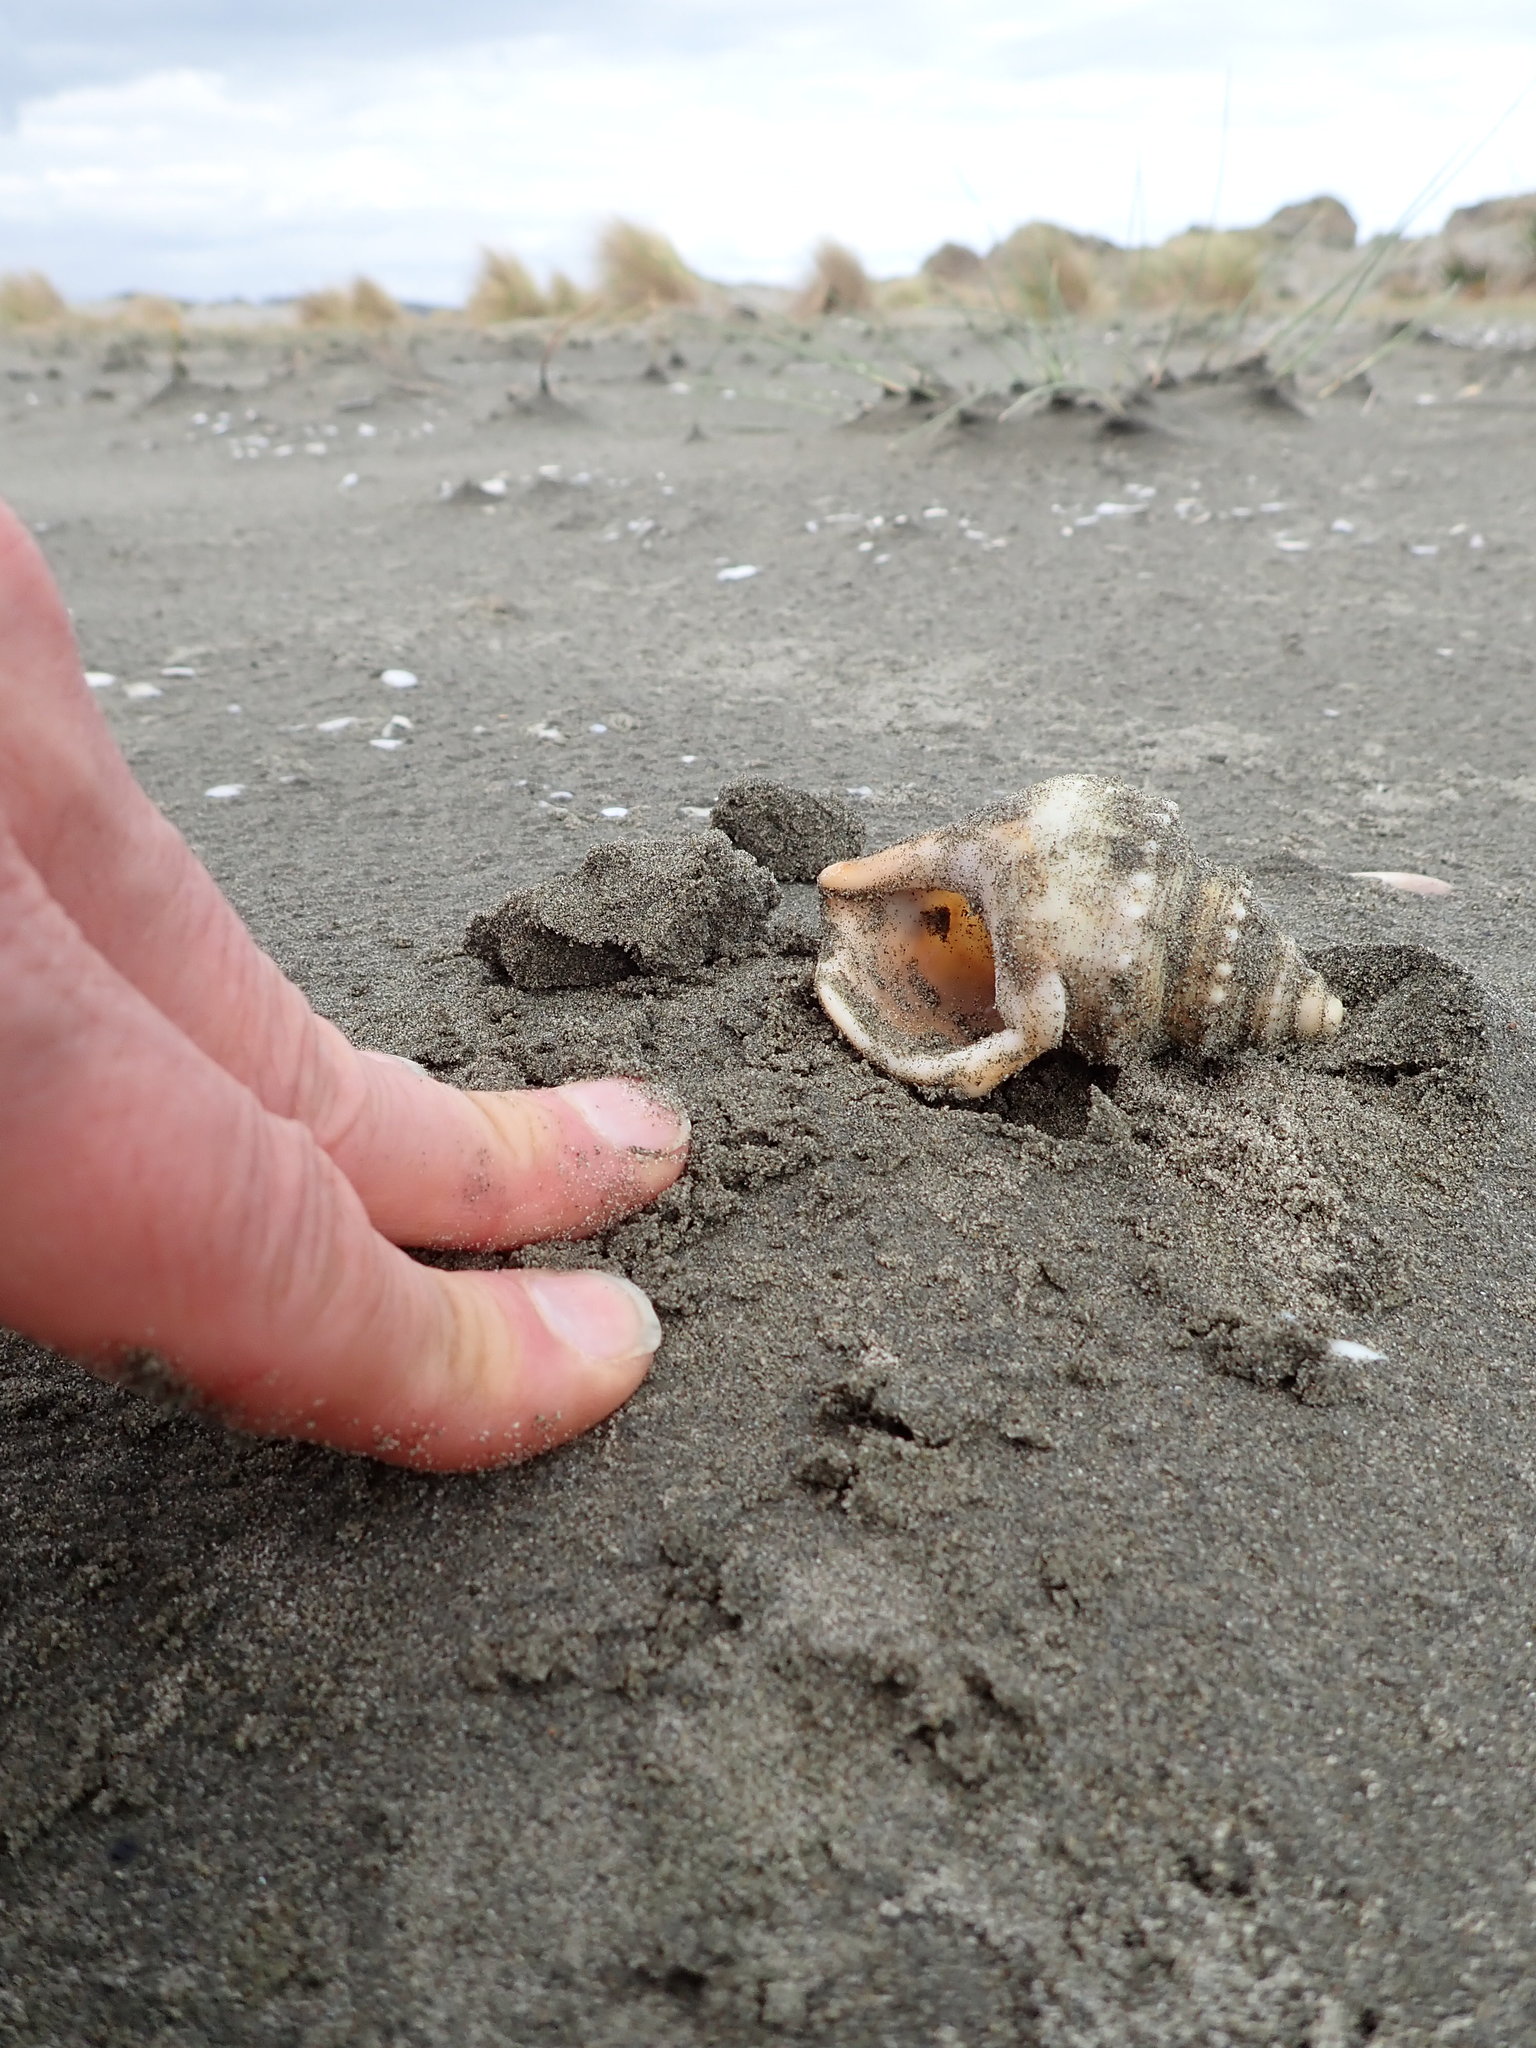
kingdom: Animalia
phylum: Mollusca
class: Gastropoda
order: Littorinimorpha
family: Struthiolariidae
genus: Struthiolaria
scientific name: Struthiolaria papulosa
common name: Large ostrich foot
